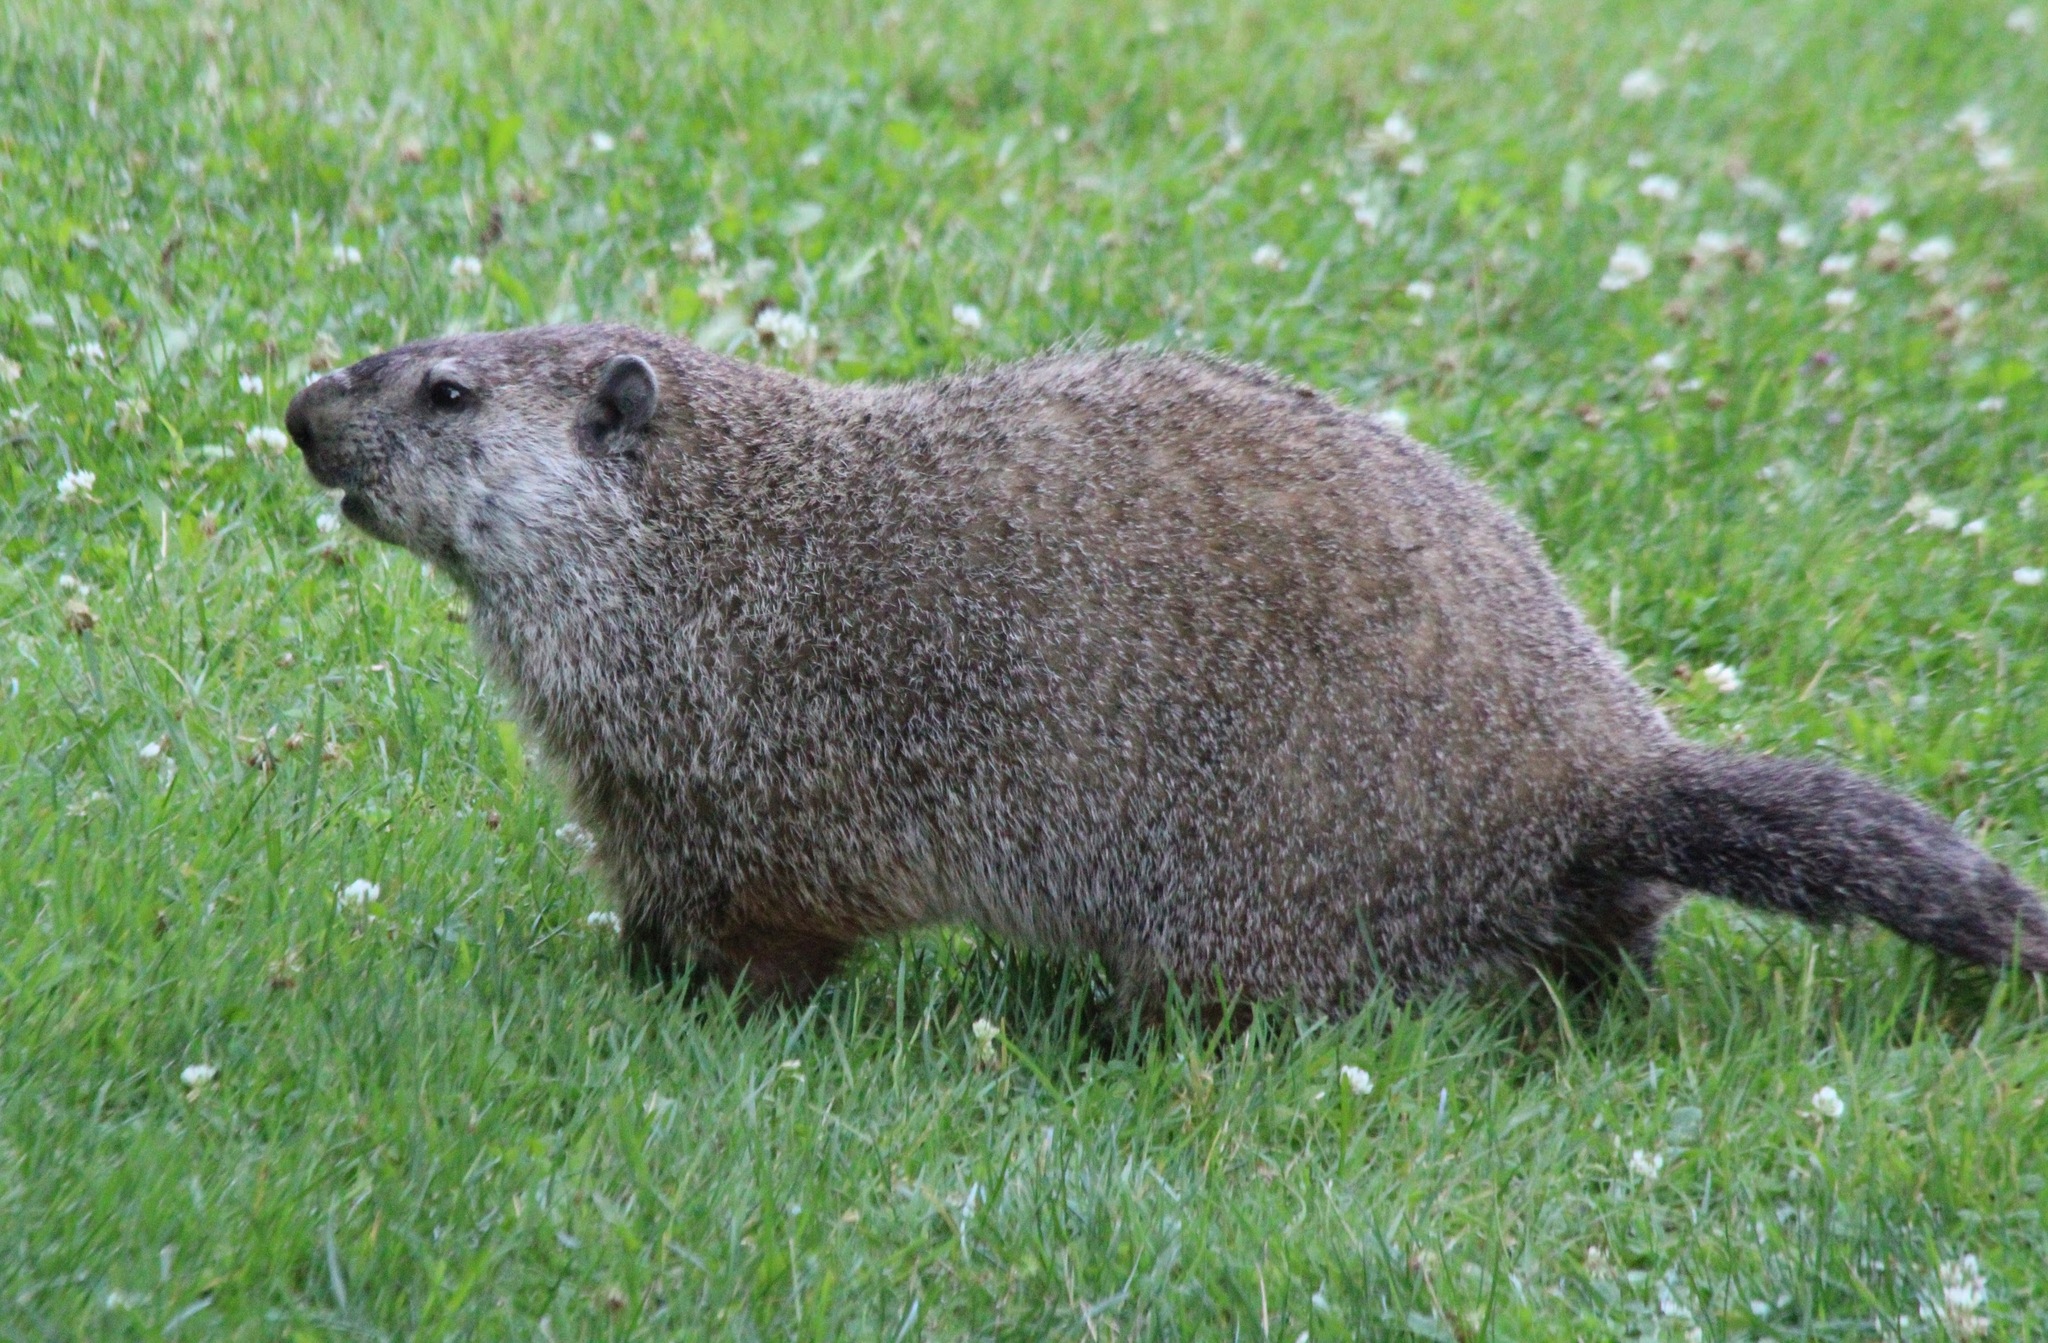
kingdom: Animalia
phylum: Chordata
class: Mammalia
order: Rodentia
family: Sciuridae
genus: Marmota
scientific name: Marmota monax
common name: Groundhog
